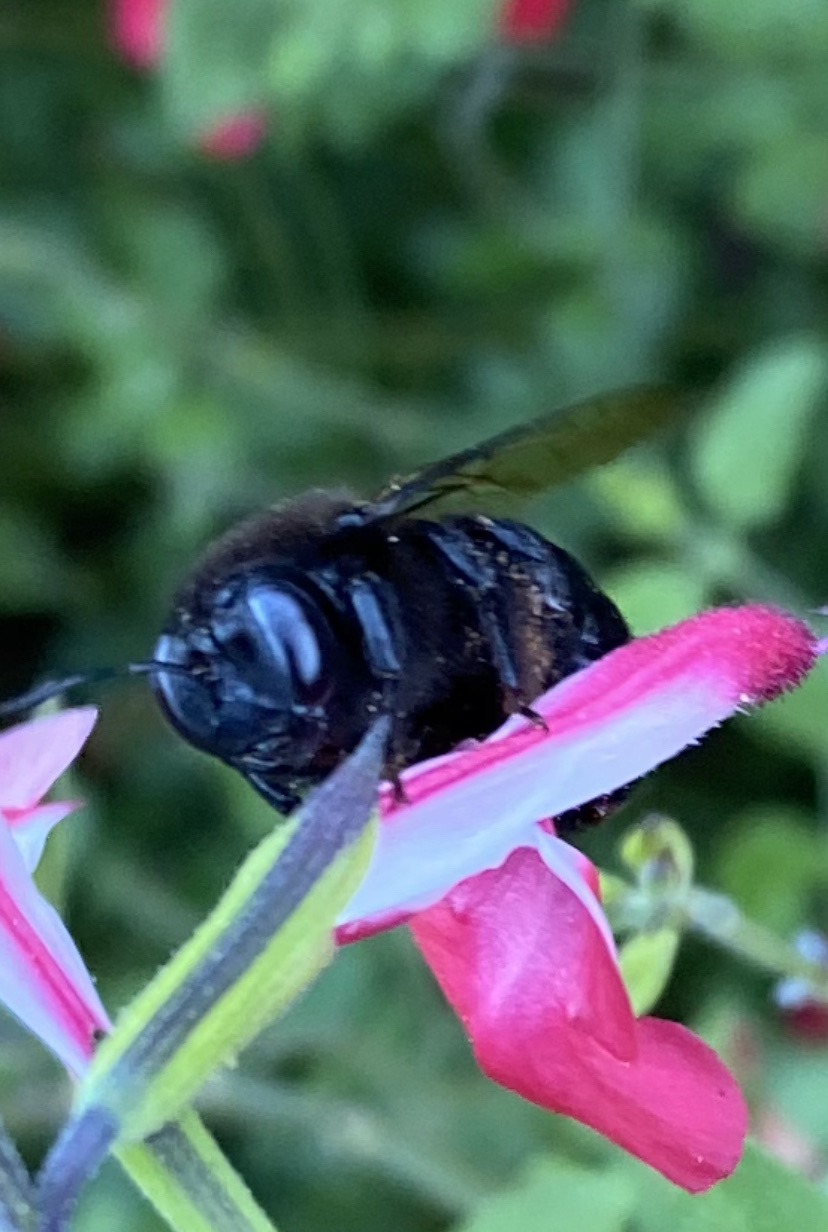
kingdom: Animalia
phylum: Arthropoda
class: Insecta
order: Hymenoptera
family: Apidae
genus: Xylocopa
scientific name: Xylocopa tabaniformis
